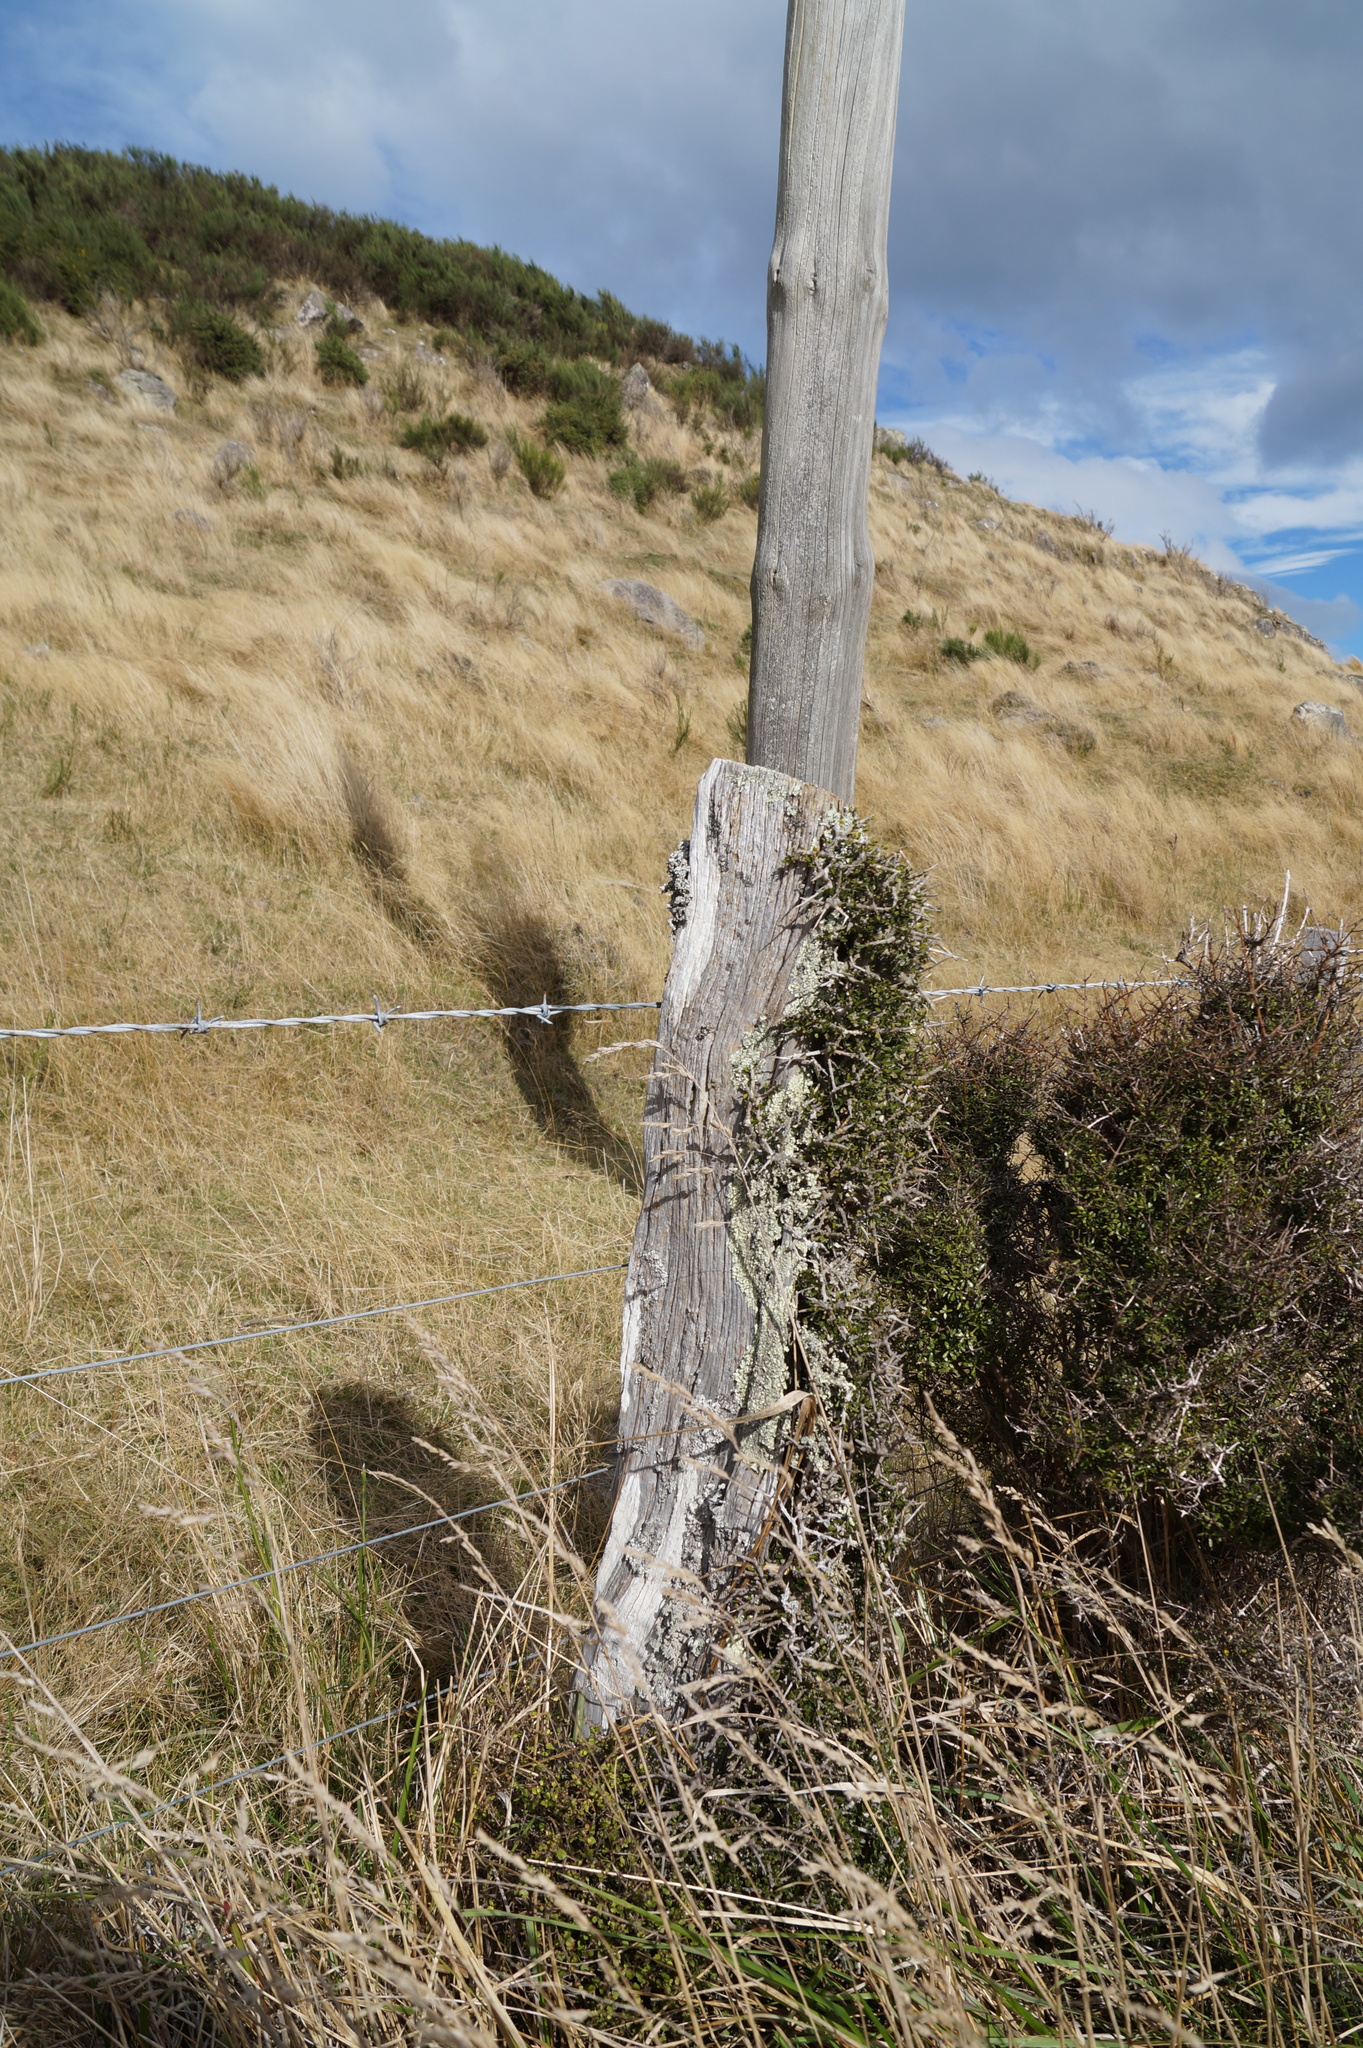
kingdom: Plantae
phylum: Tracheophyta
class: Magnoliopsida
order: Malpighiales
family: Violaceae
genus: Melicytus
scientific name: Melicytus alpinus
